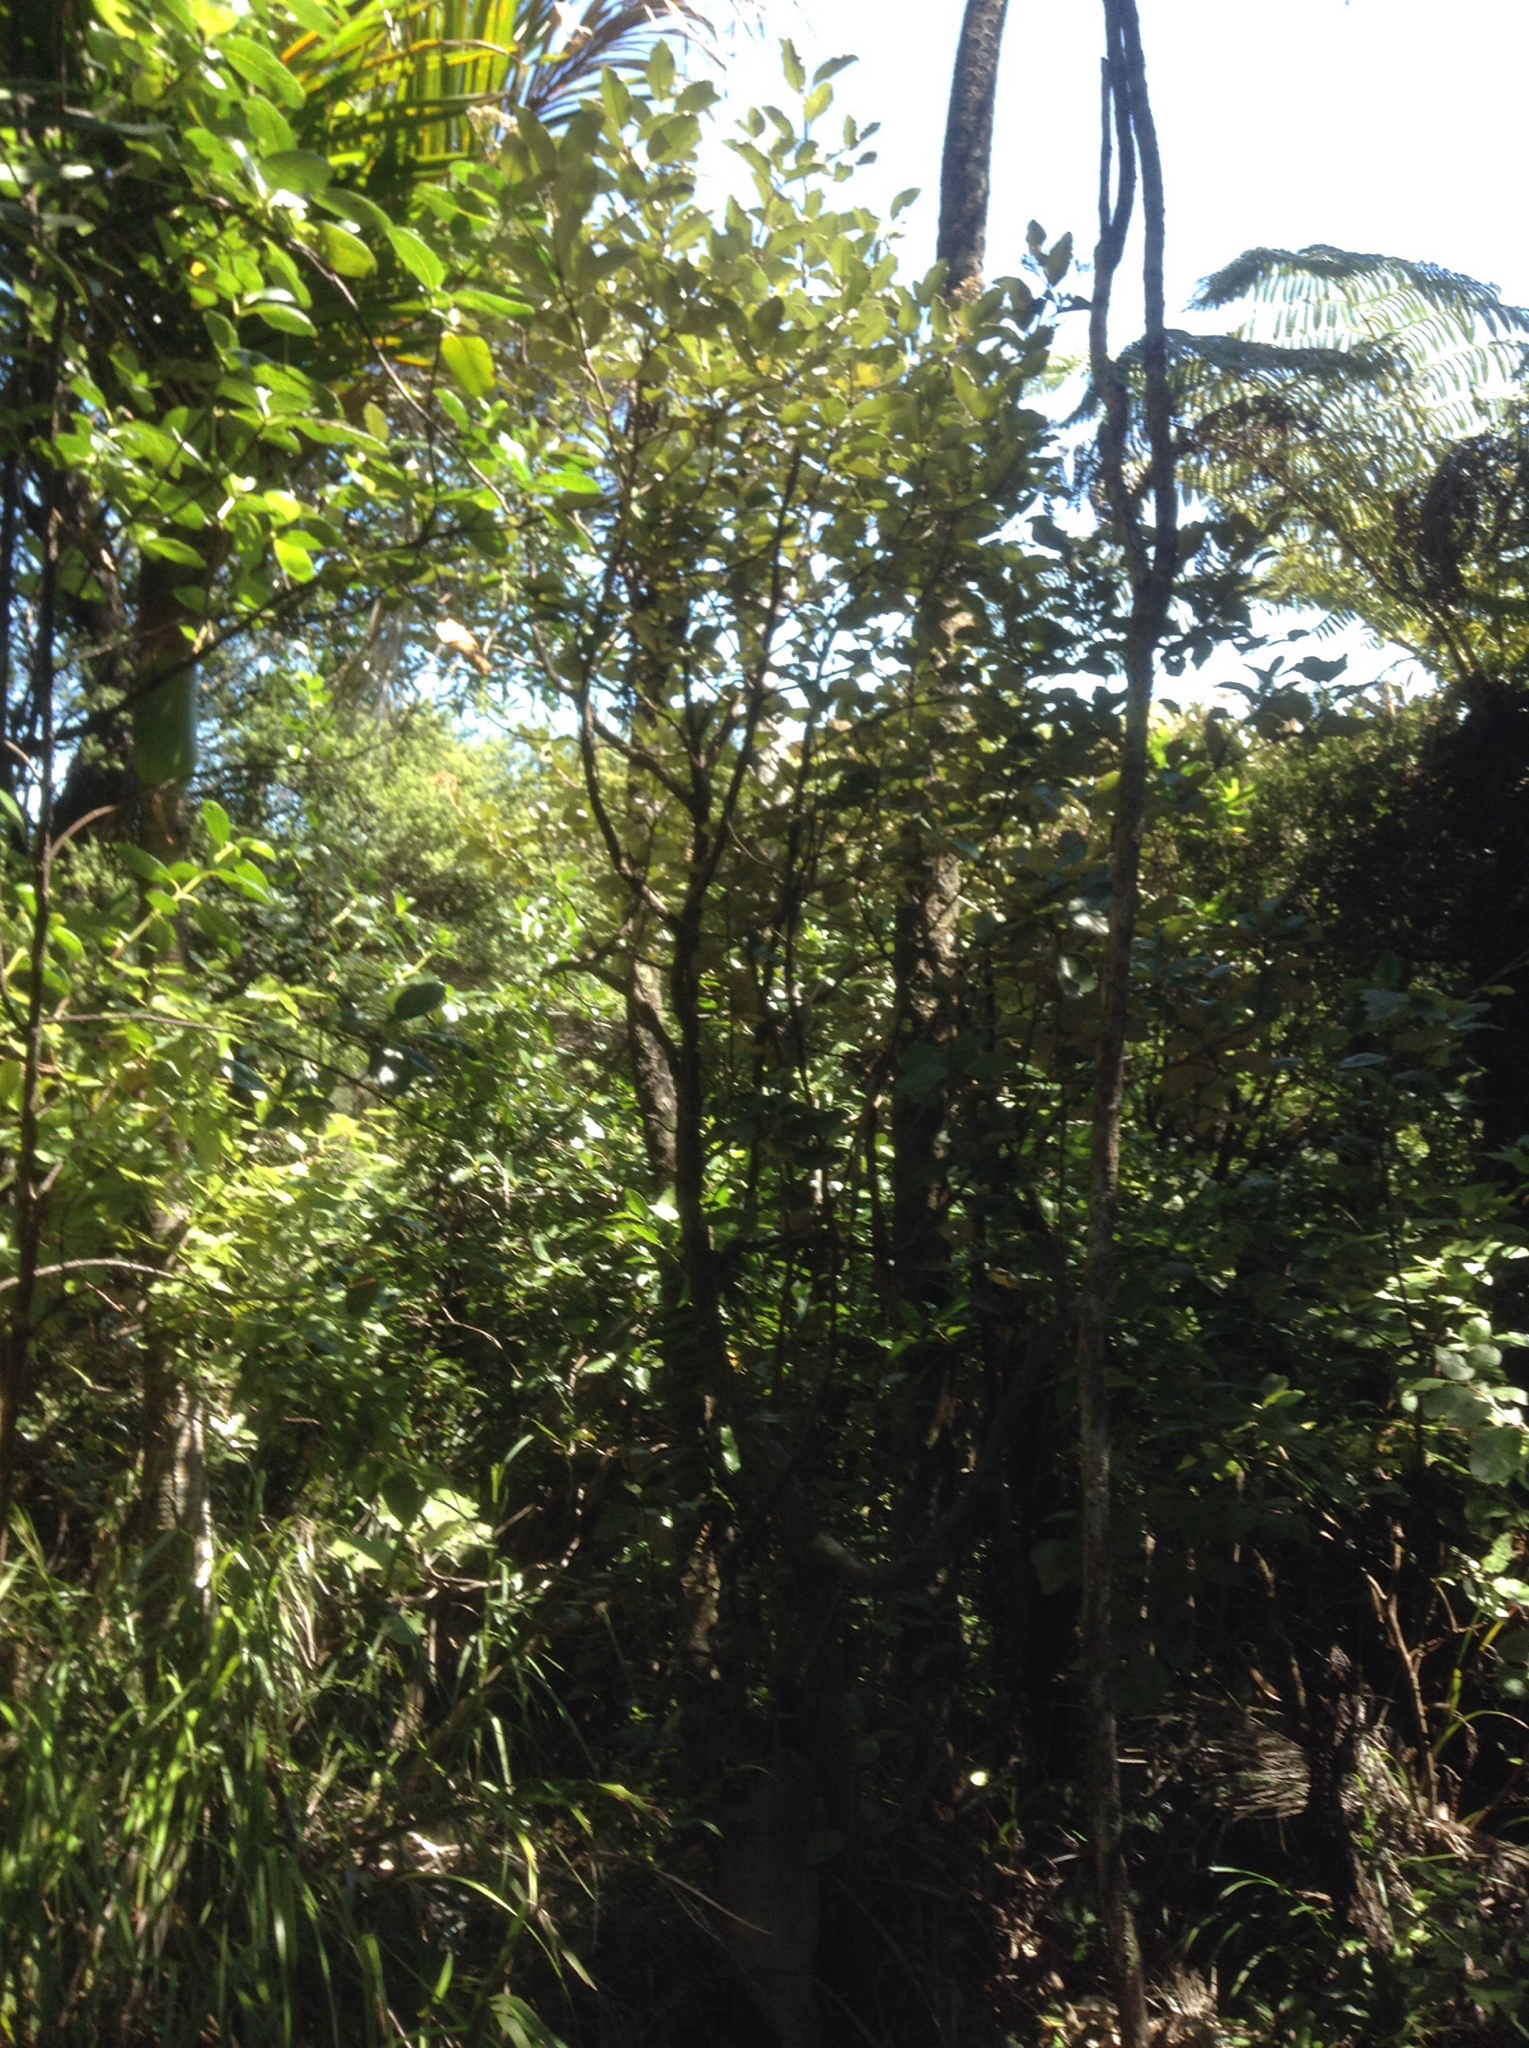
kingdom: Plantae
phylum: Tracheophyta
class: Magnoliopsida
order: Asterales
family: Asteraceae
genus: Olearia
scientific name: Olearia furfuracea
